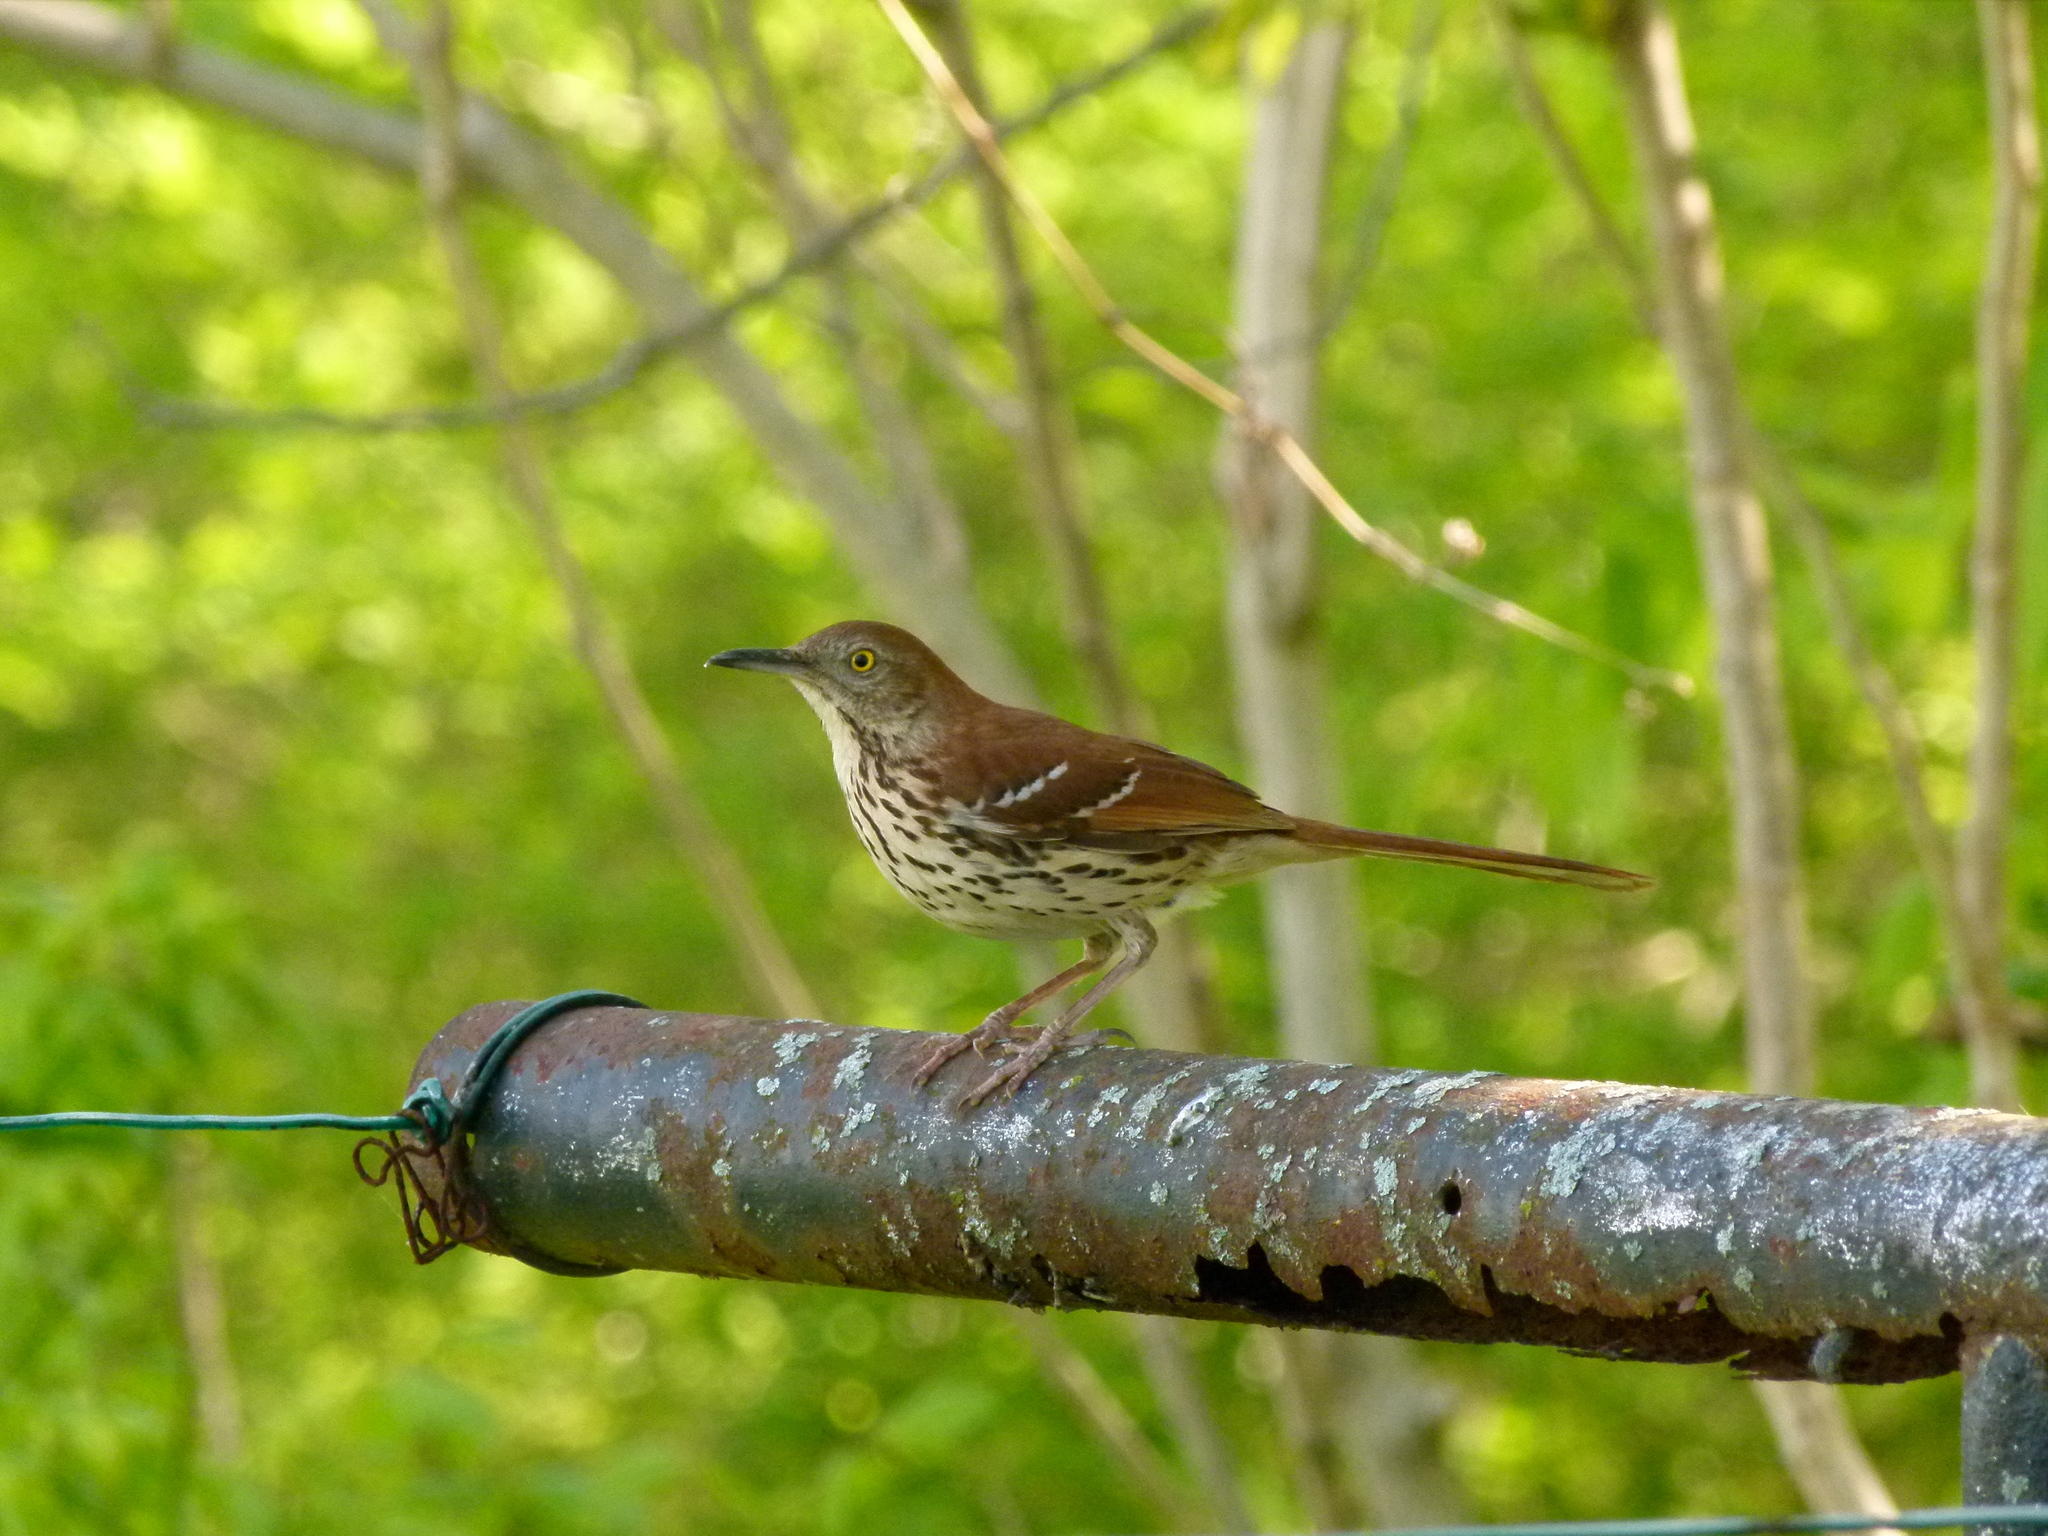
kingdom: Animalia
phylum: Chordata
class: Aves
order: Passeriformes
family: Mimidae
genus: Toxostoma
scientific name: Toxostoma rufum
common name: Brown thrasher
